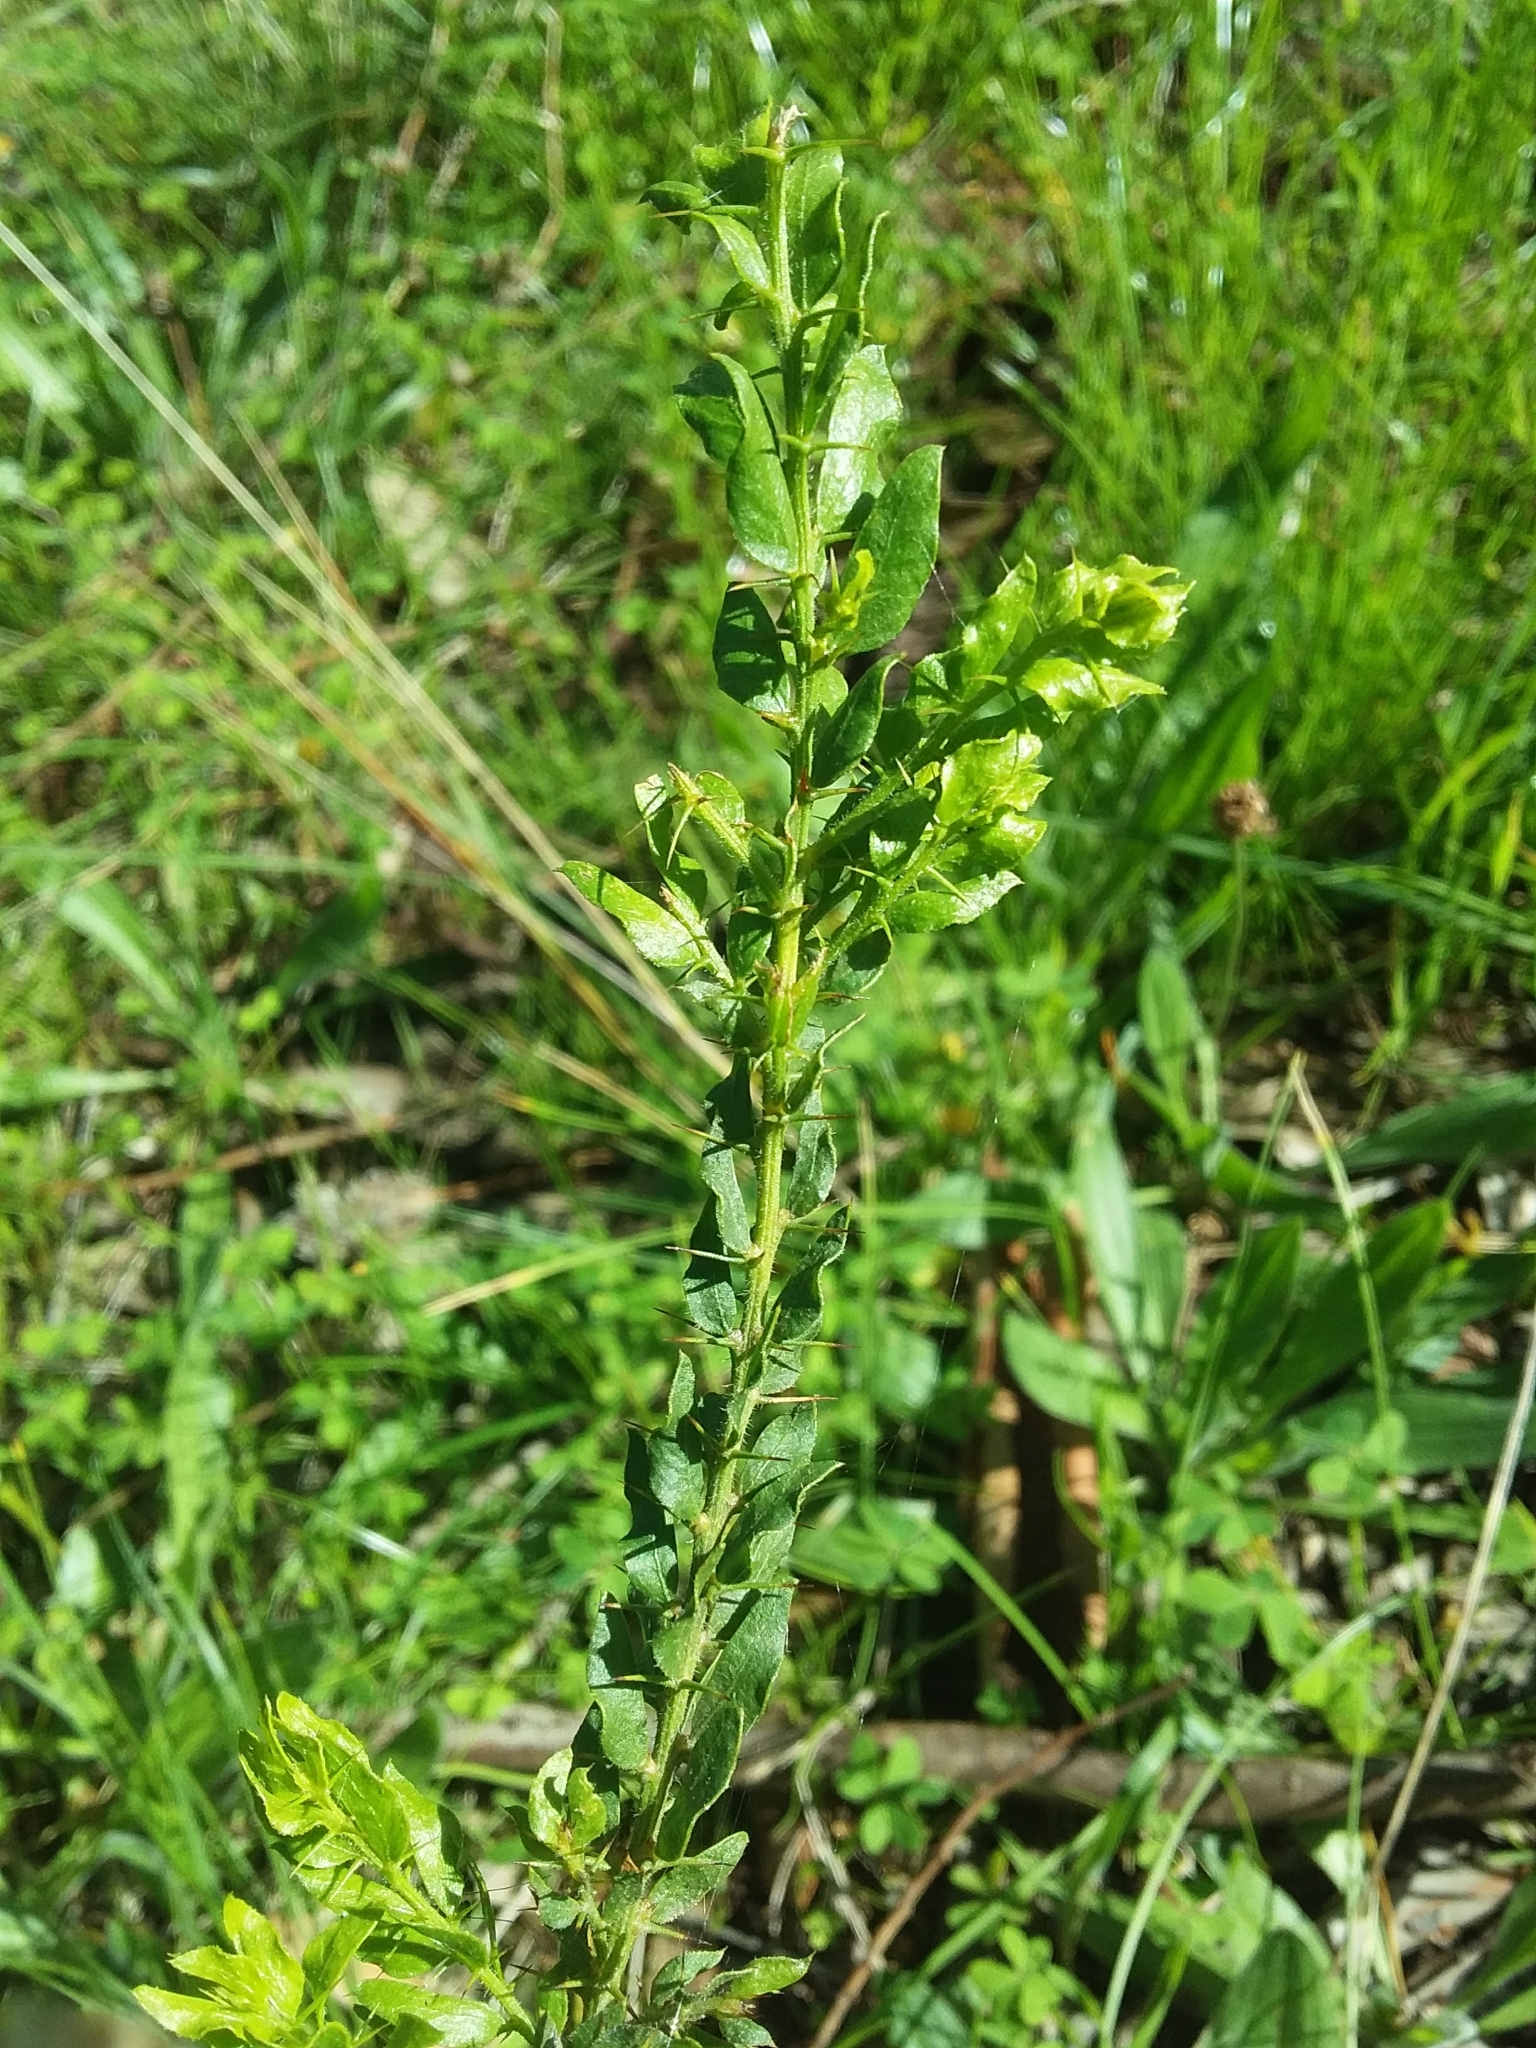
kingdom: Plantae
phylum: Tracheophyta
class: Magnoliopsida
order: Fabales
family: Fabaceae
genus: Acacia
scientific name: Acacia paradoxa
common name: Paradox acacia
